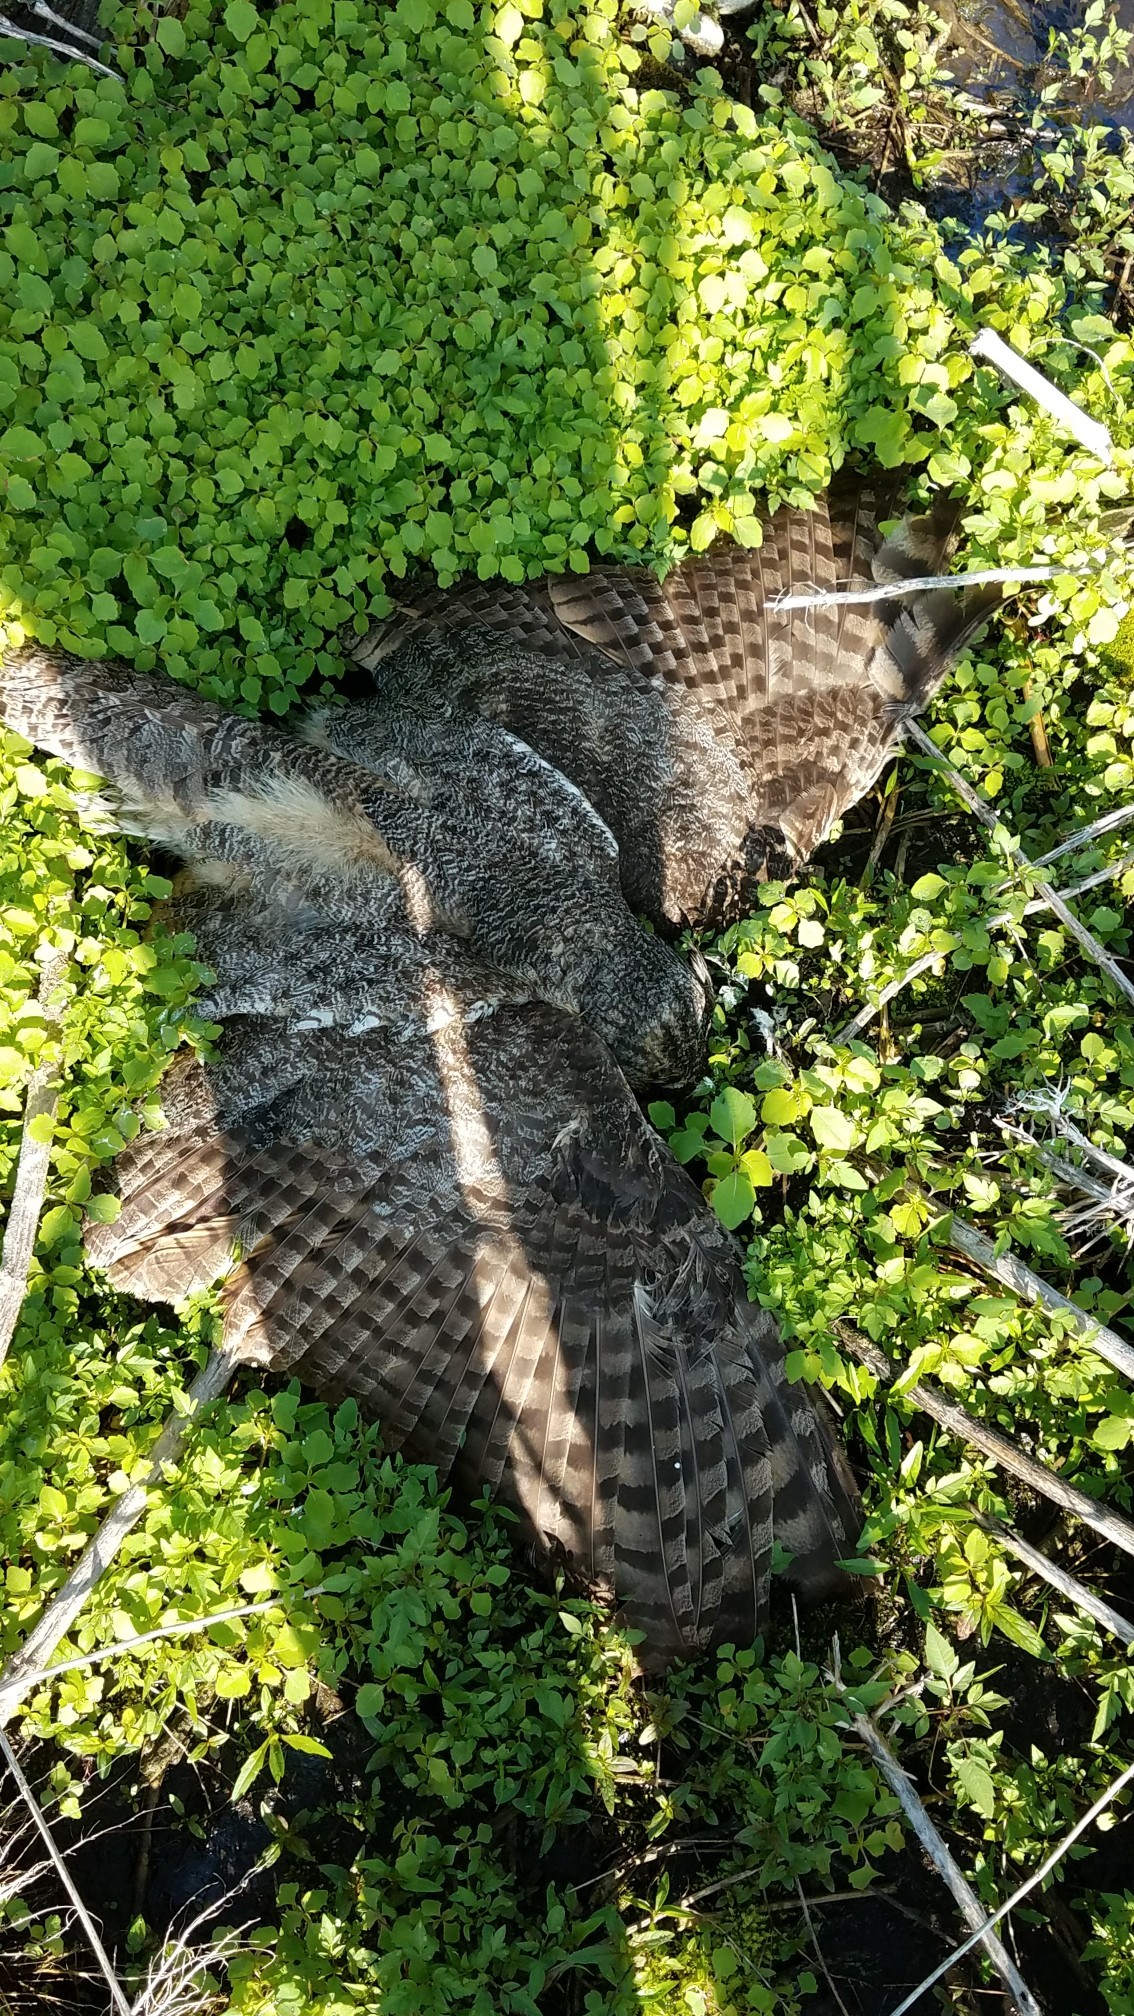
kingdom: Animalia
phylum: Chordata
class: Aves
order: Strigiformes
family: Strigidae
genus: Bubo
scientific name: Bubo virginianus
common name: Great horned owl
